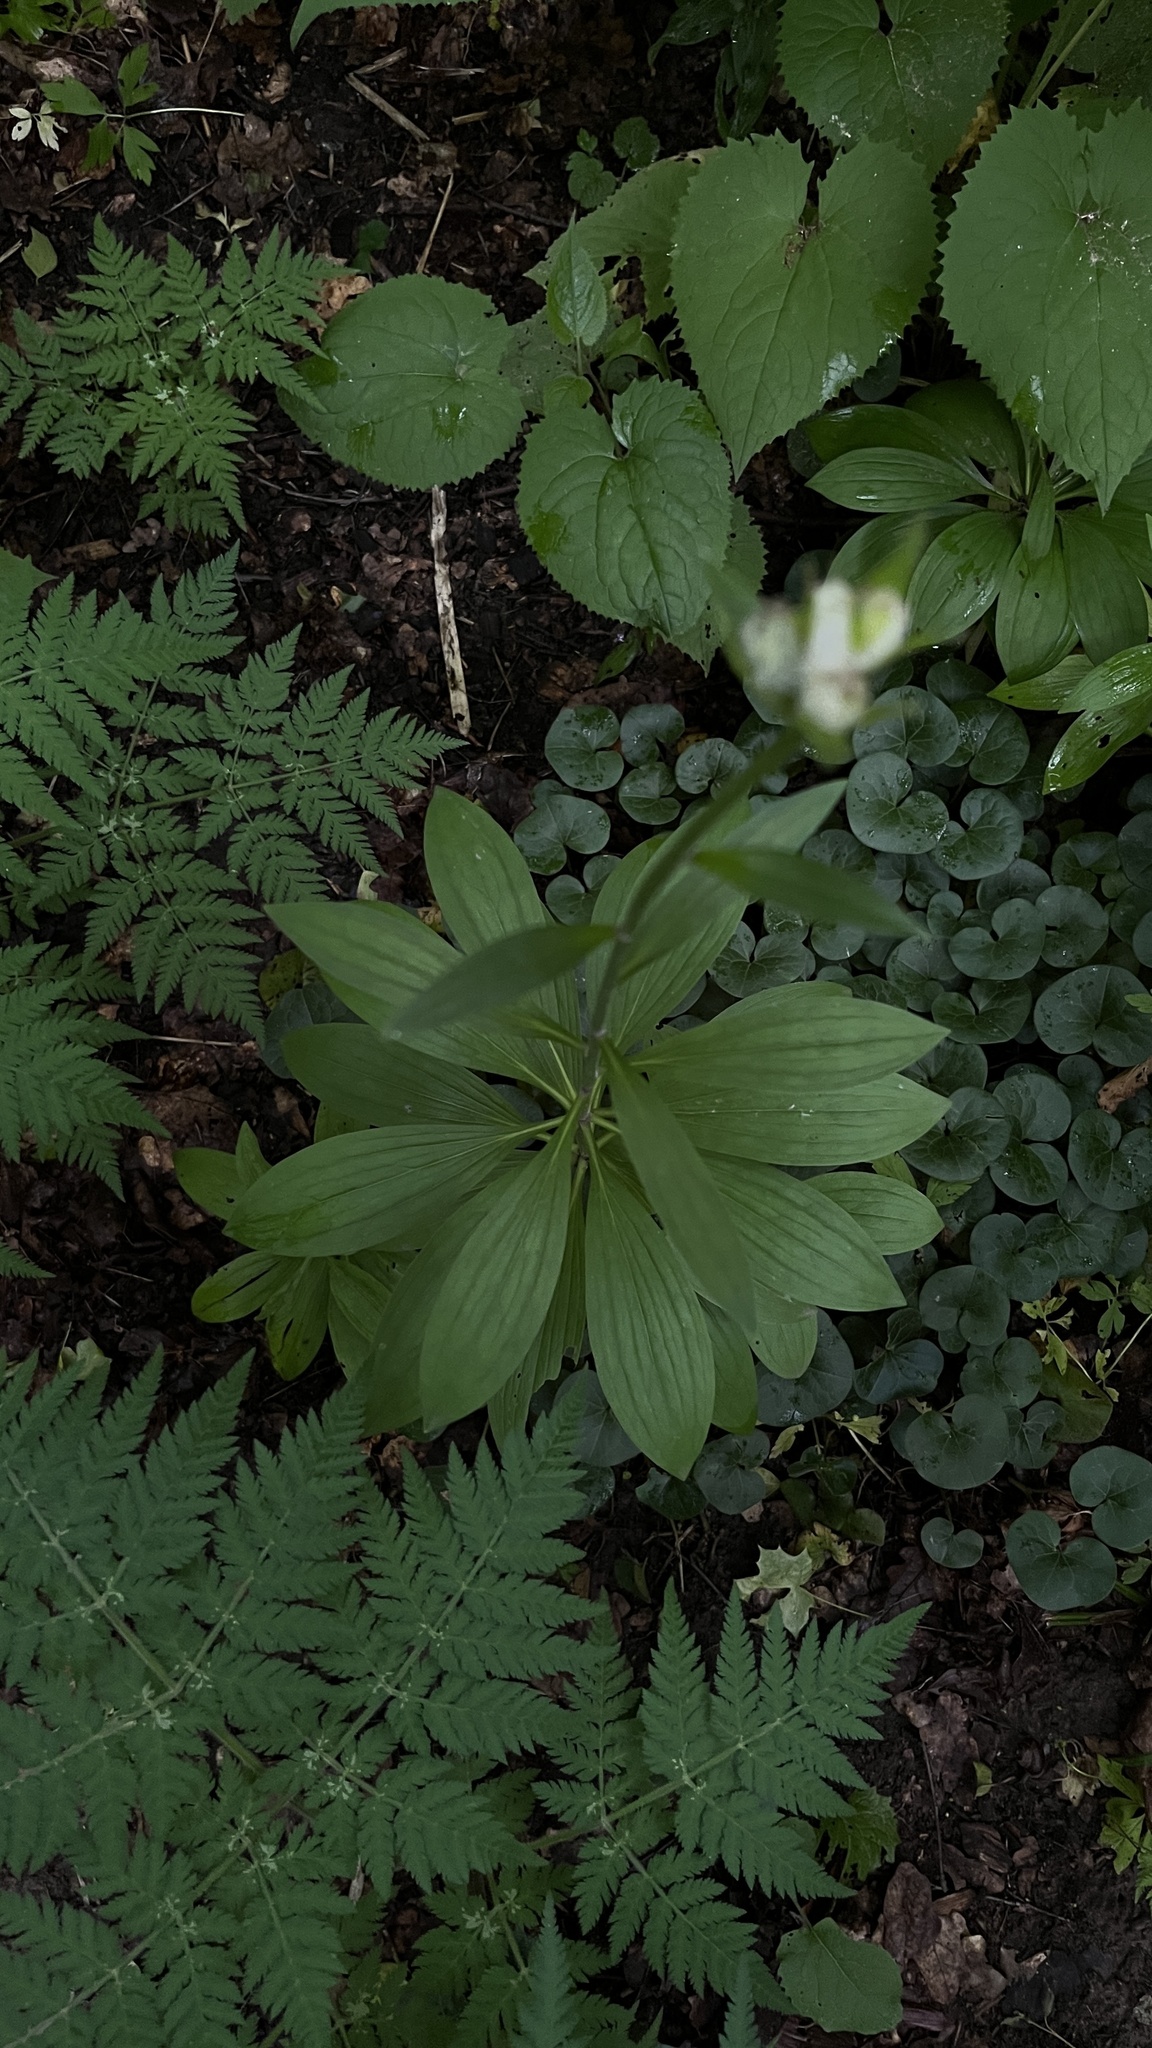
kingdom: Plantae
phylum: Tracheophyta
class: Liliopsida
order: Liliales
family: Liliaceae
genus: Lilium
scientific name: Lilium martagon
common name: Martagon lily
